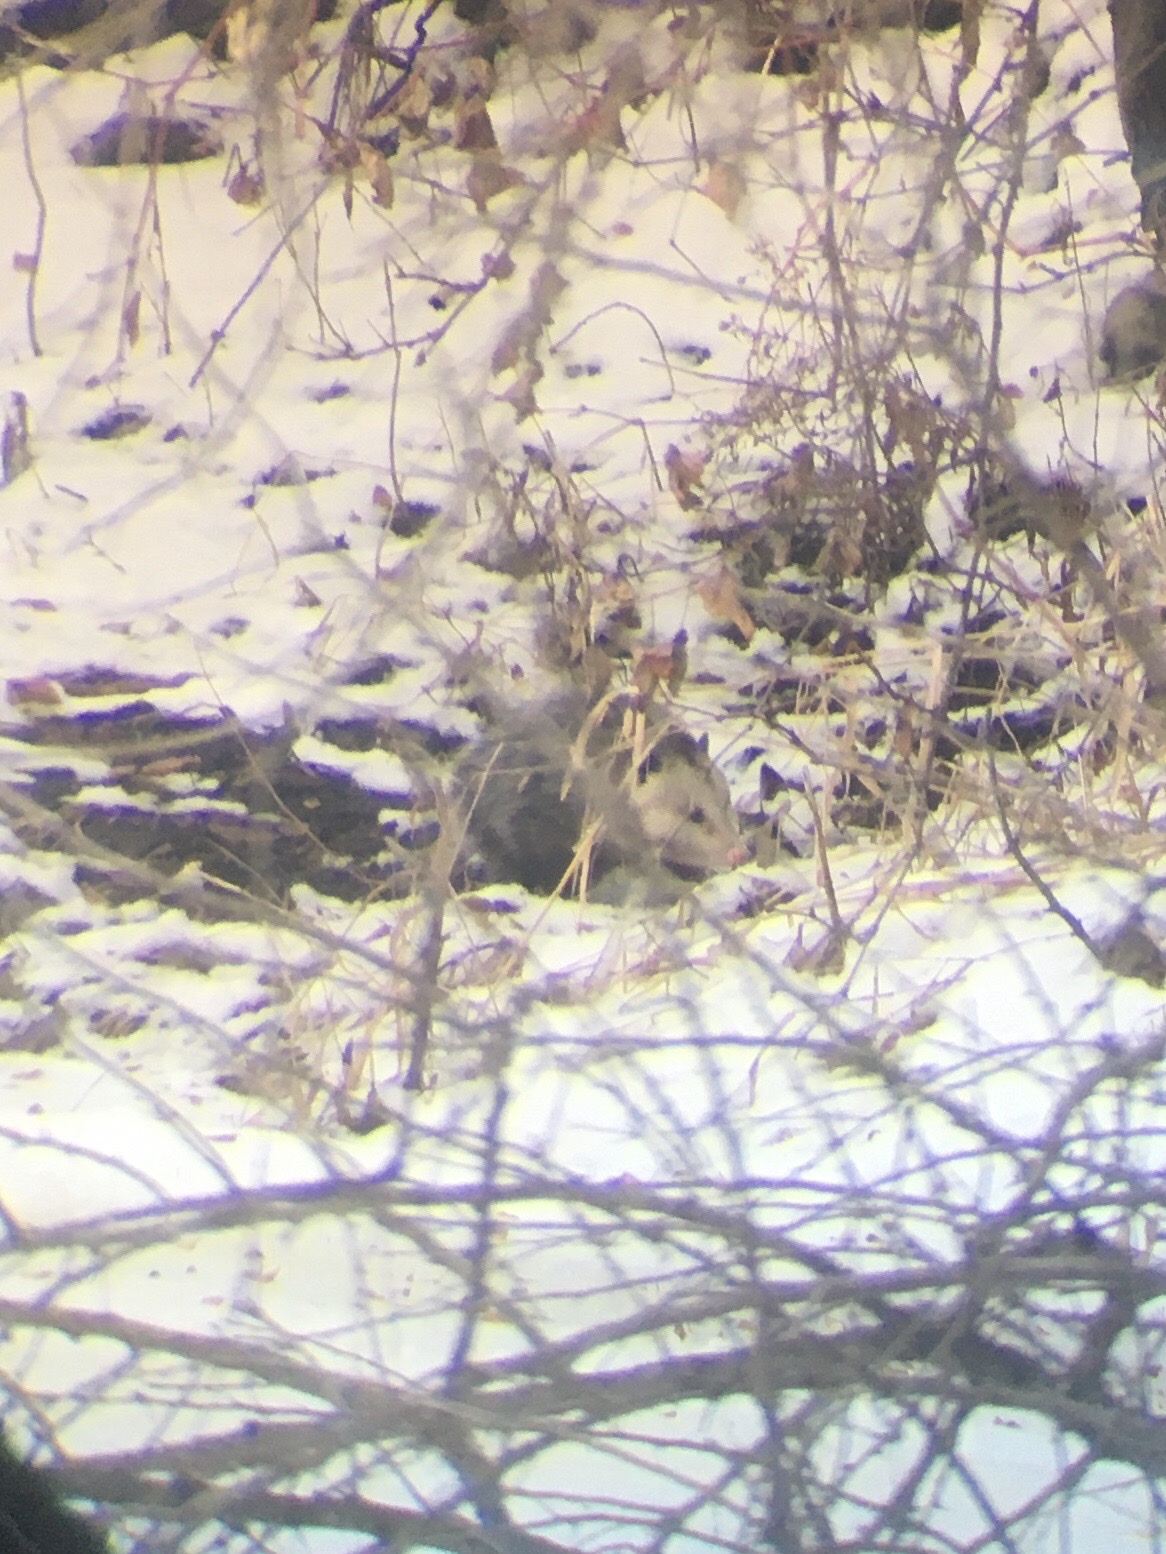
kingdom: Animalia
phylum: Chordata
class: Mammalia
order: Didelphimorphia
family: Didelphidae
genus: Didelphis
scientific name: Didelphis virginiana
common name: Virginia opossum
